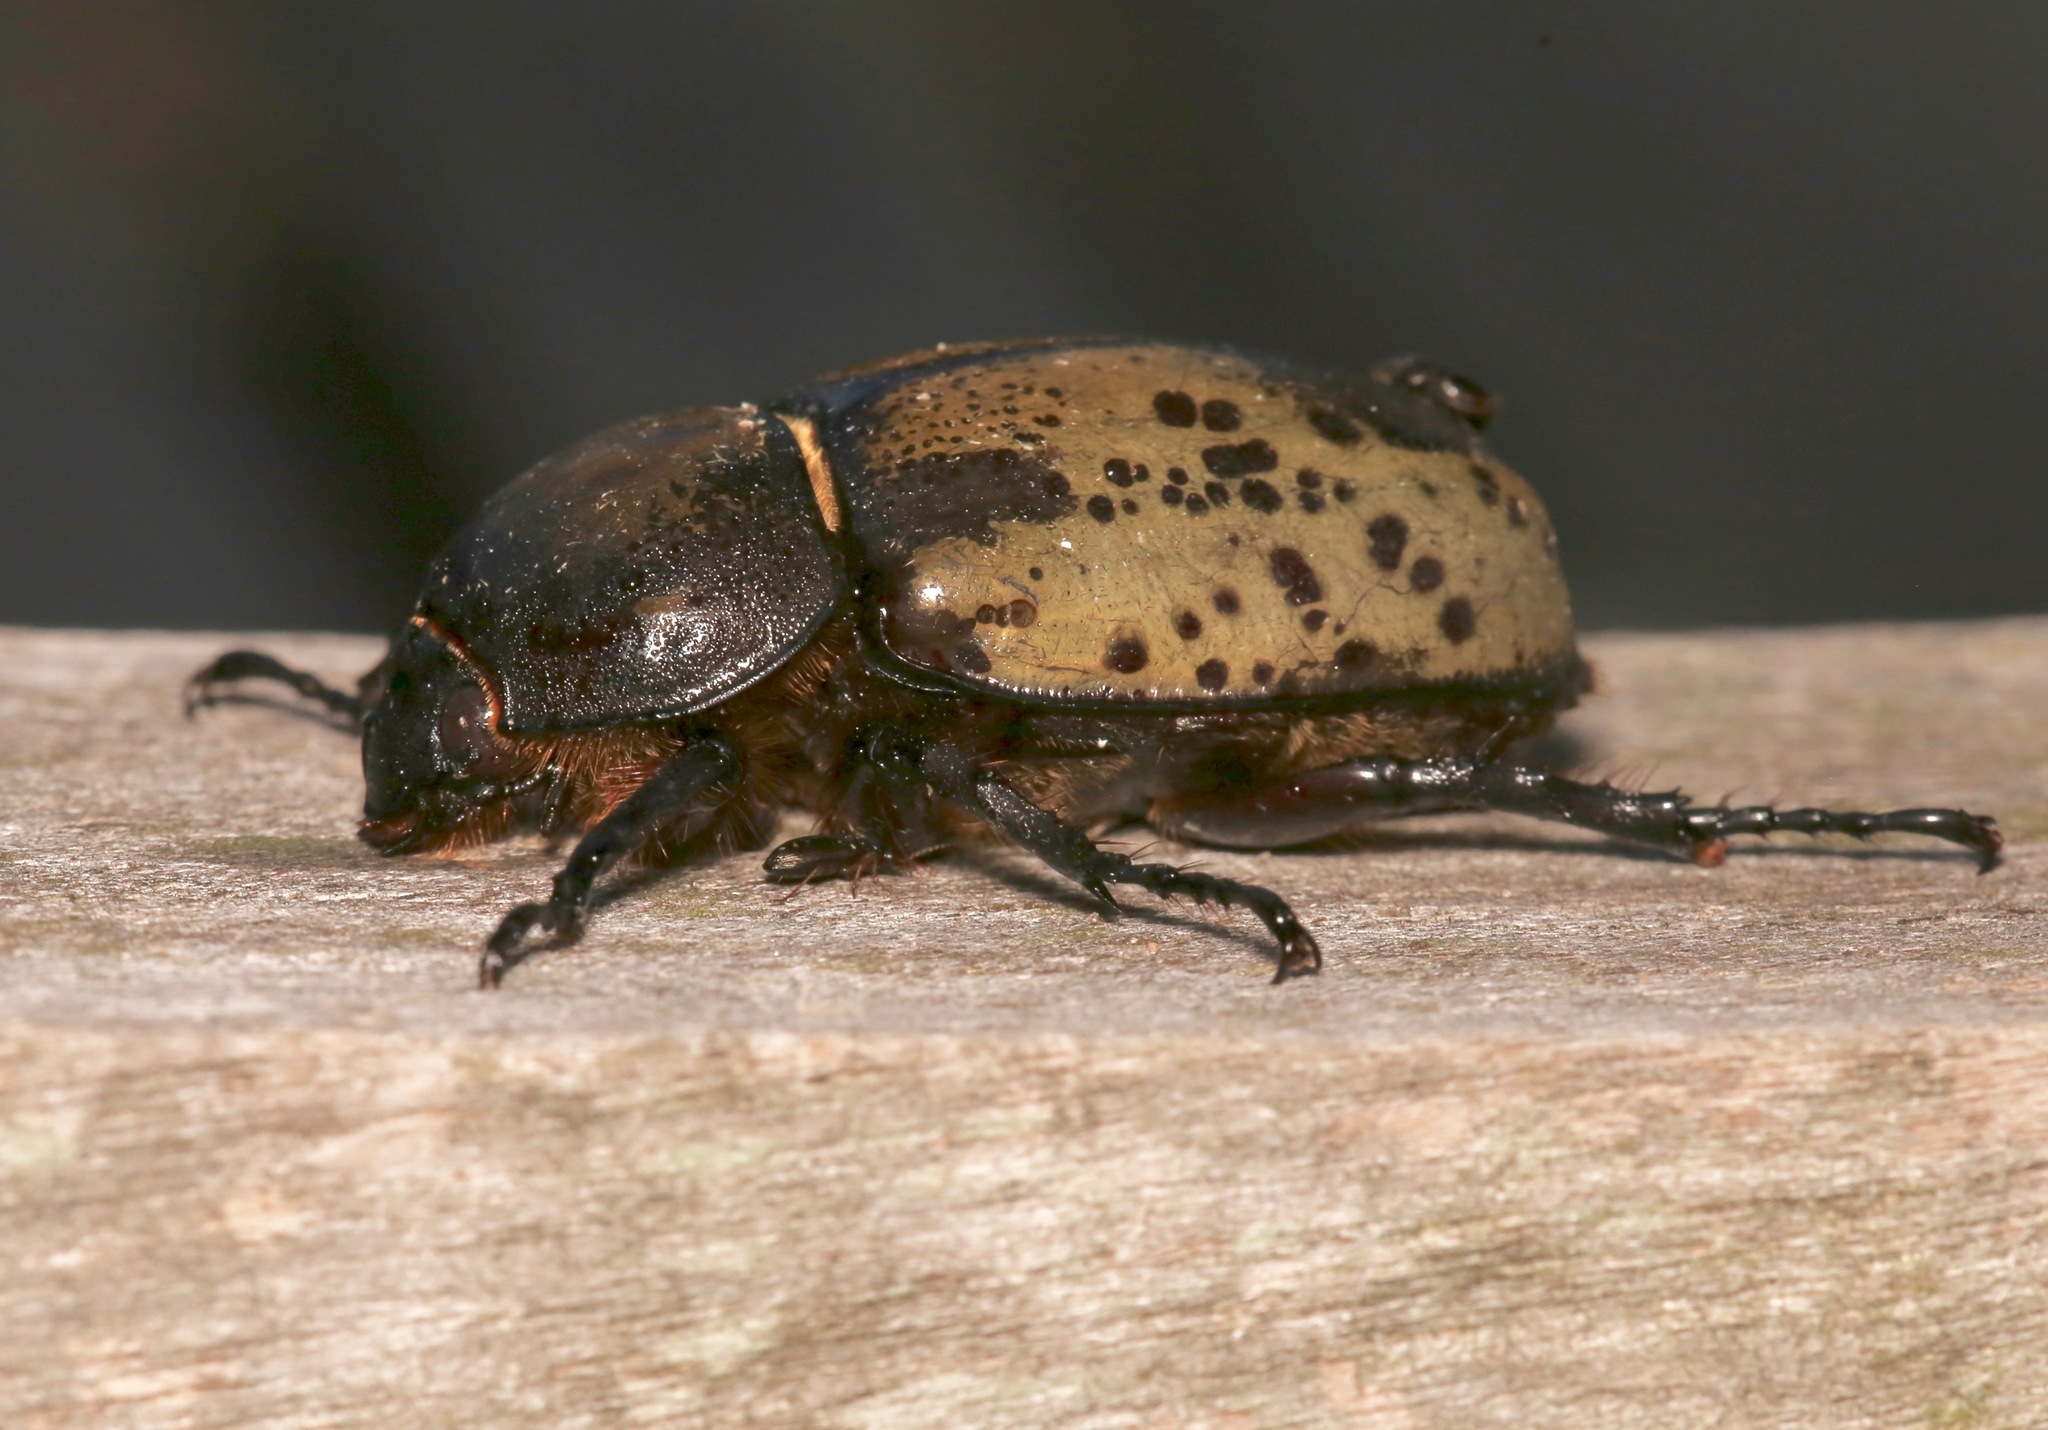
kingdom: Animalia
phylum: Arthropoda
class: Insecta
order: Coleoptera
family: Scarabaeidae
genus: Dynastes
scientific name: Dynastes tityus
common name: Eastern hercules beetle
